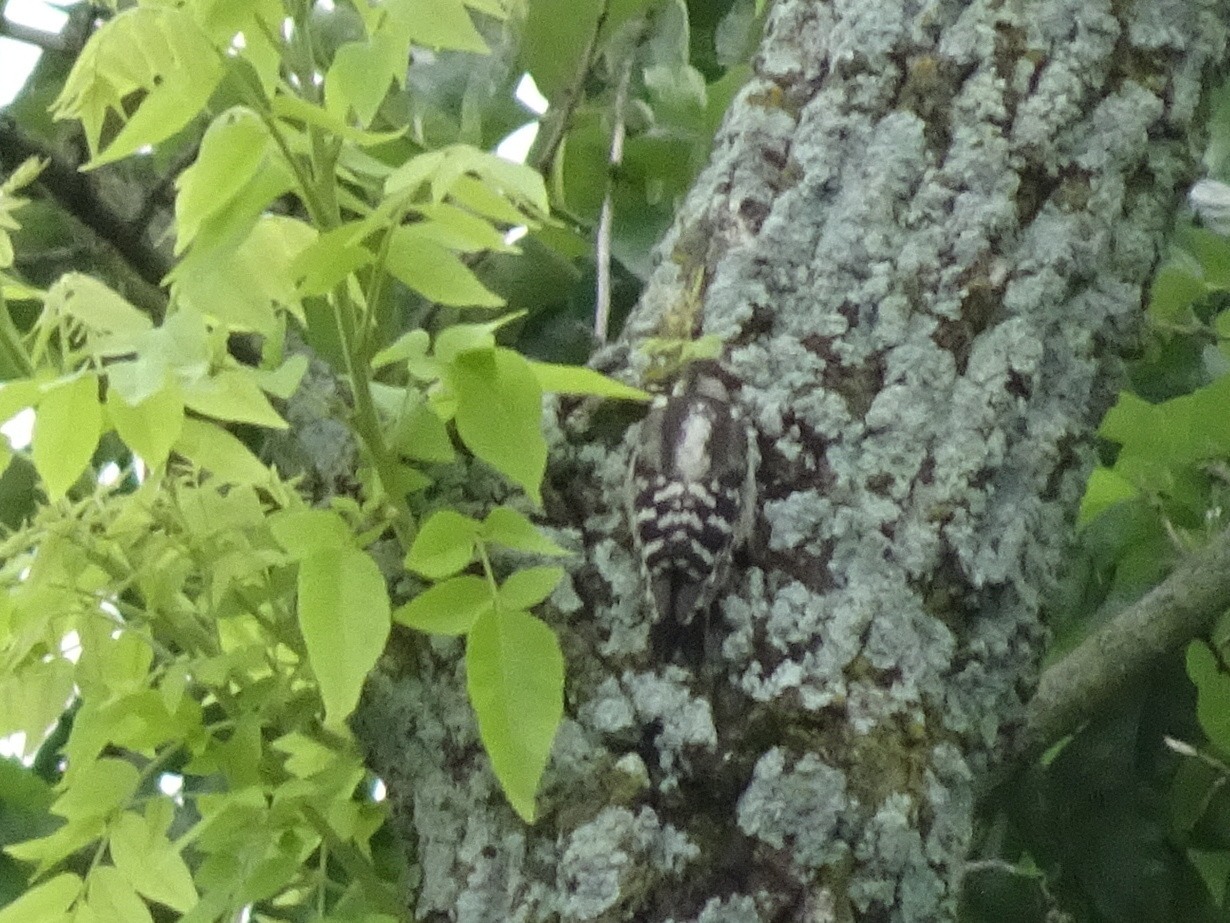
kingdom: Animalia
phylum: Chordata
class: Aves
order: Piciformes
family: Picidae
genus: Dryobates
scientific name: Dryobates pubescens
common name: Downy woodpecker
